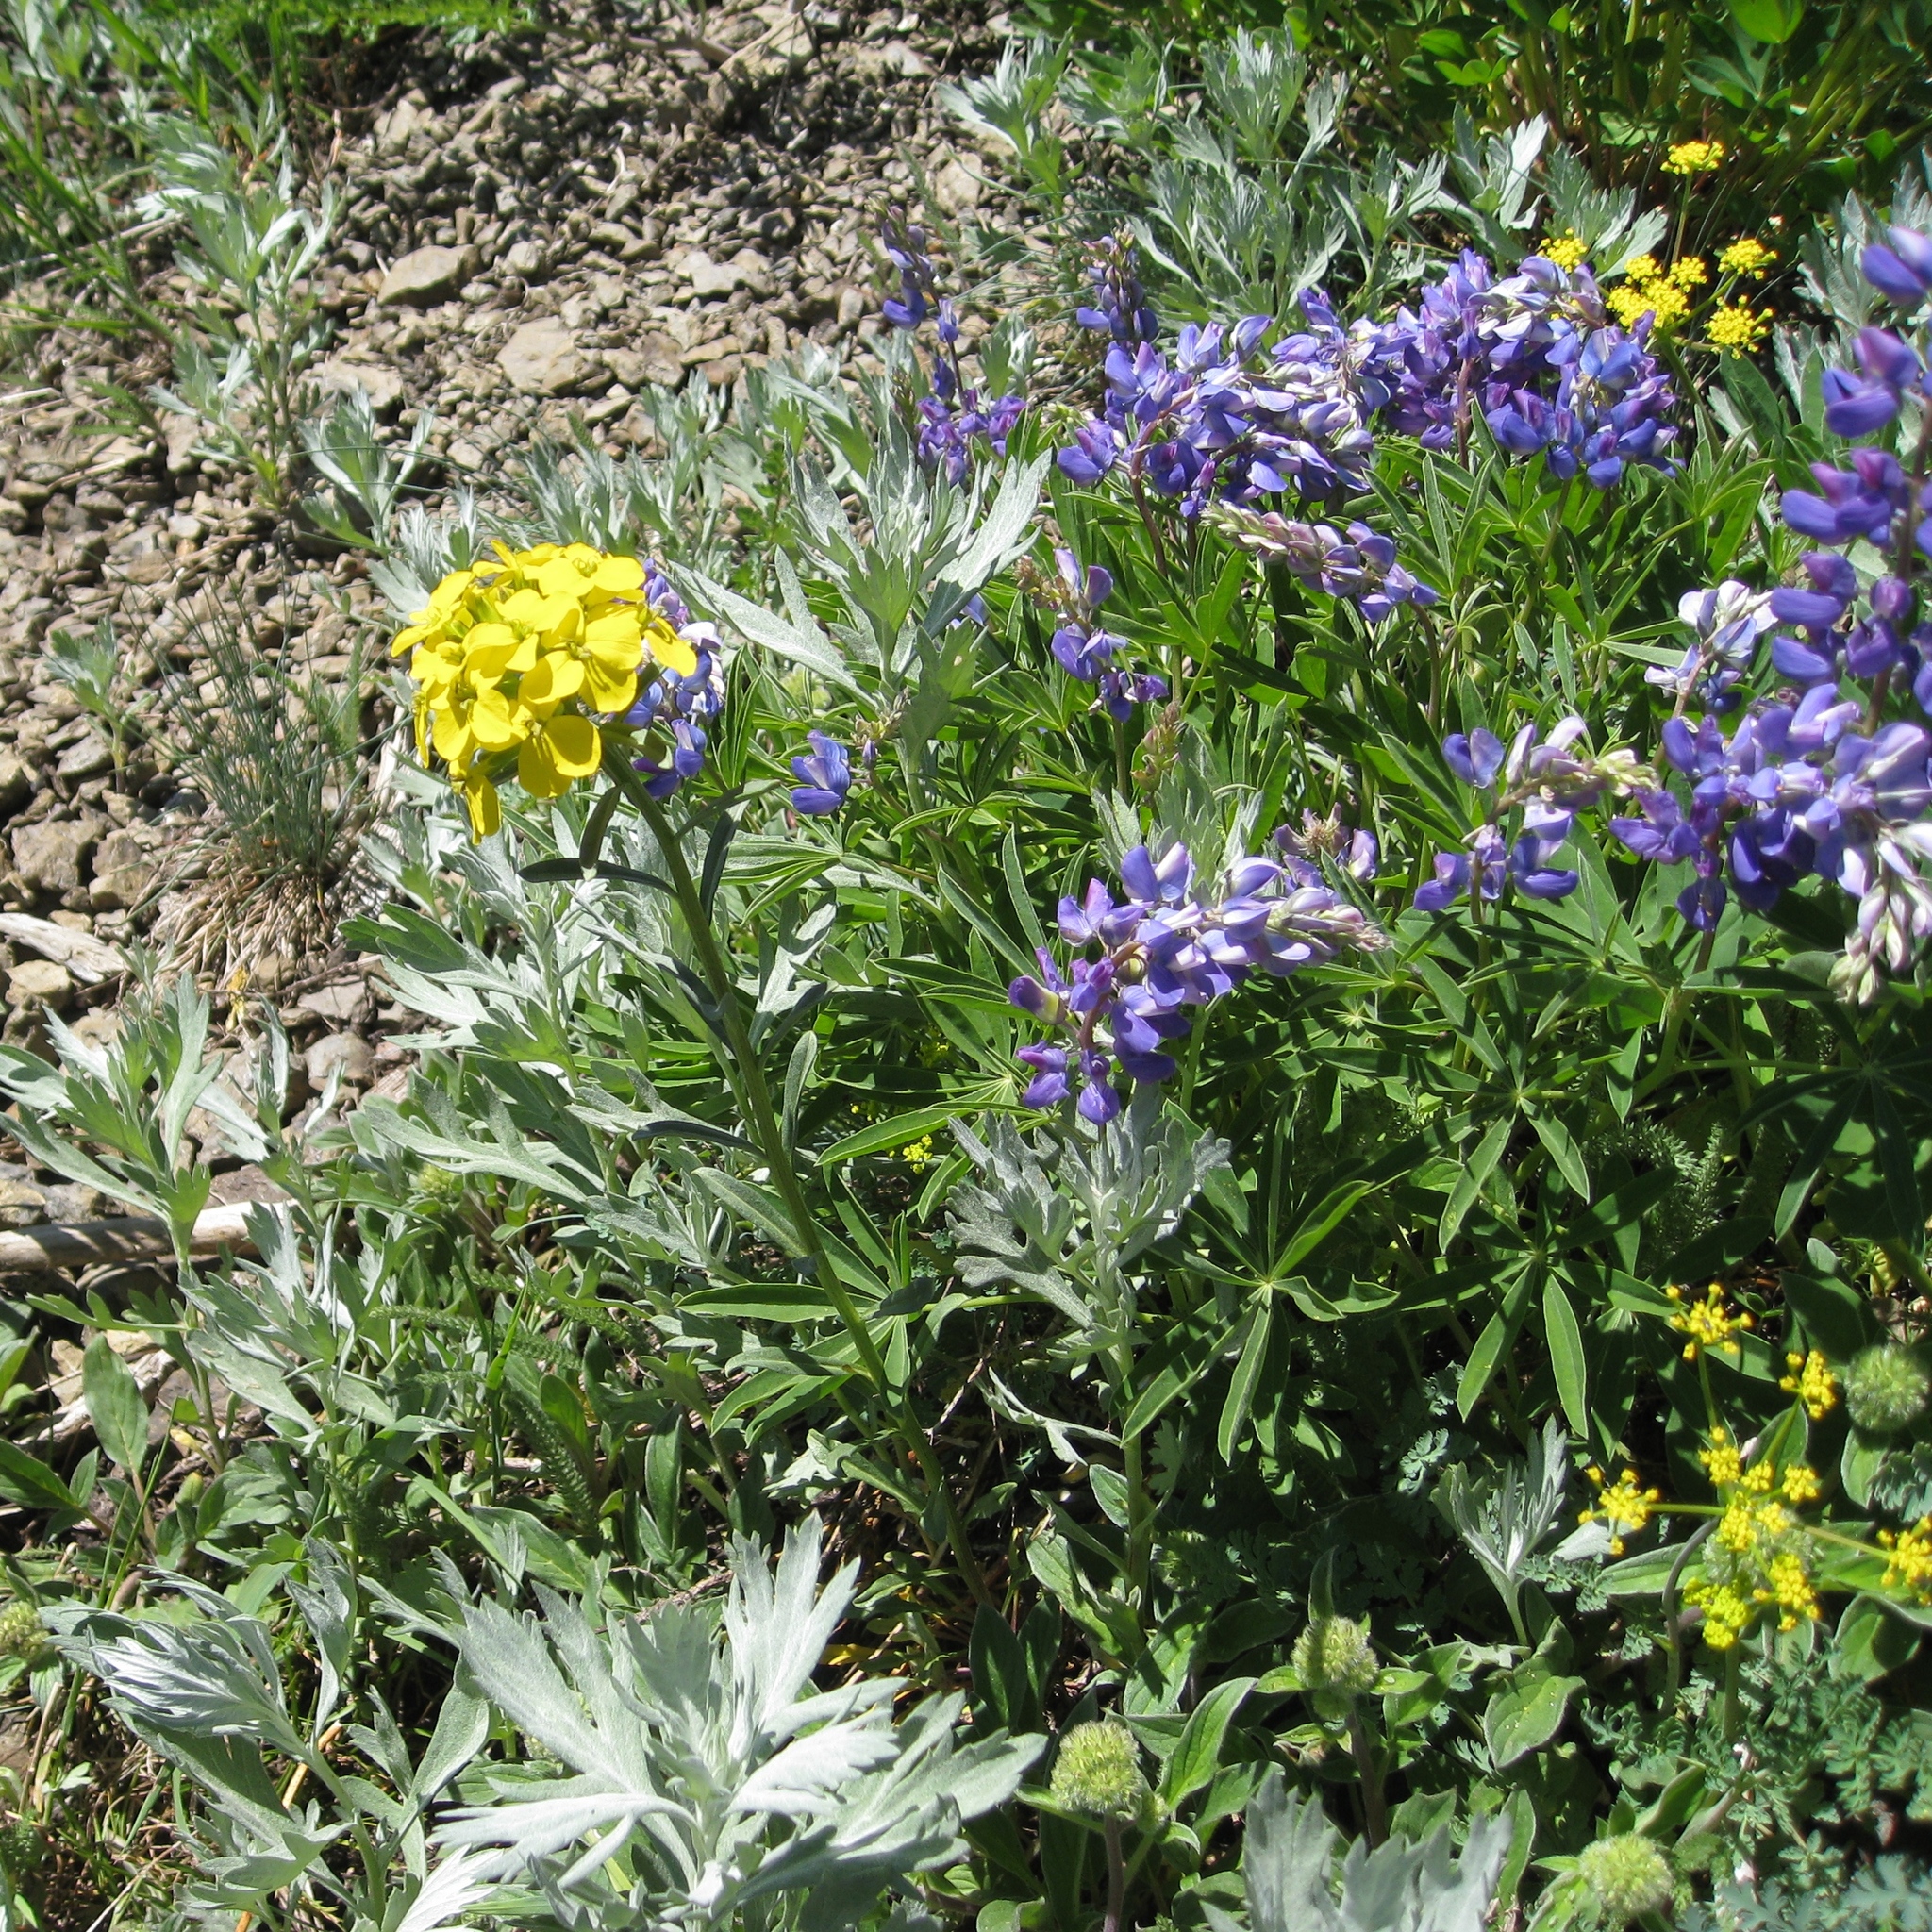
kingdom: Plantae
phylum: Tracheophyta
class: Magnoliopsida
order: Brassicales
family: Brassicaceae
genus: Erysimum
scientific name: Erysimum capitatum
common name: Western wallflower
